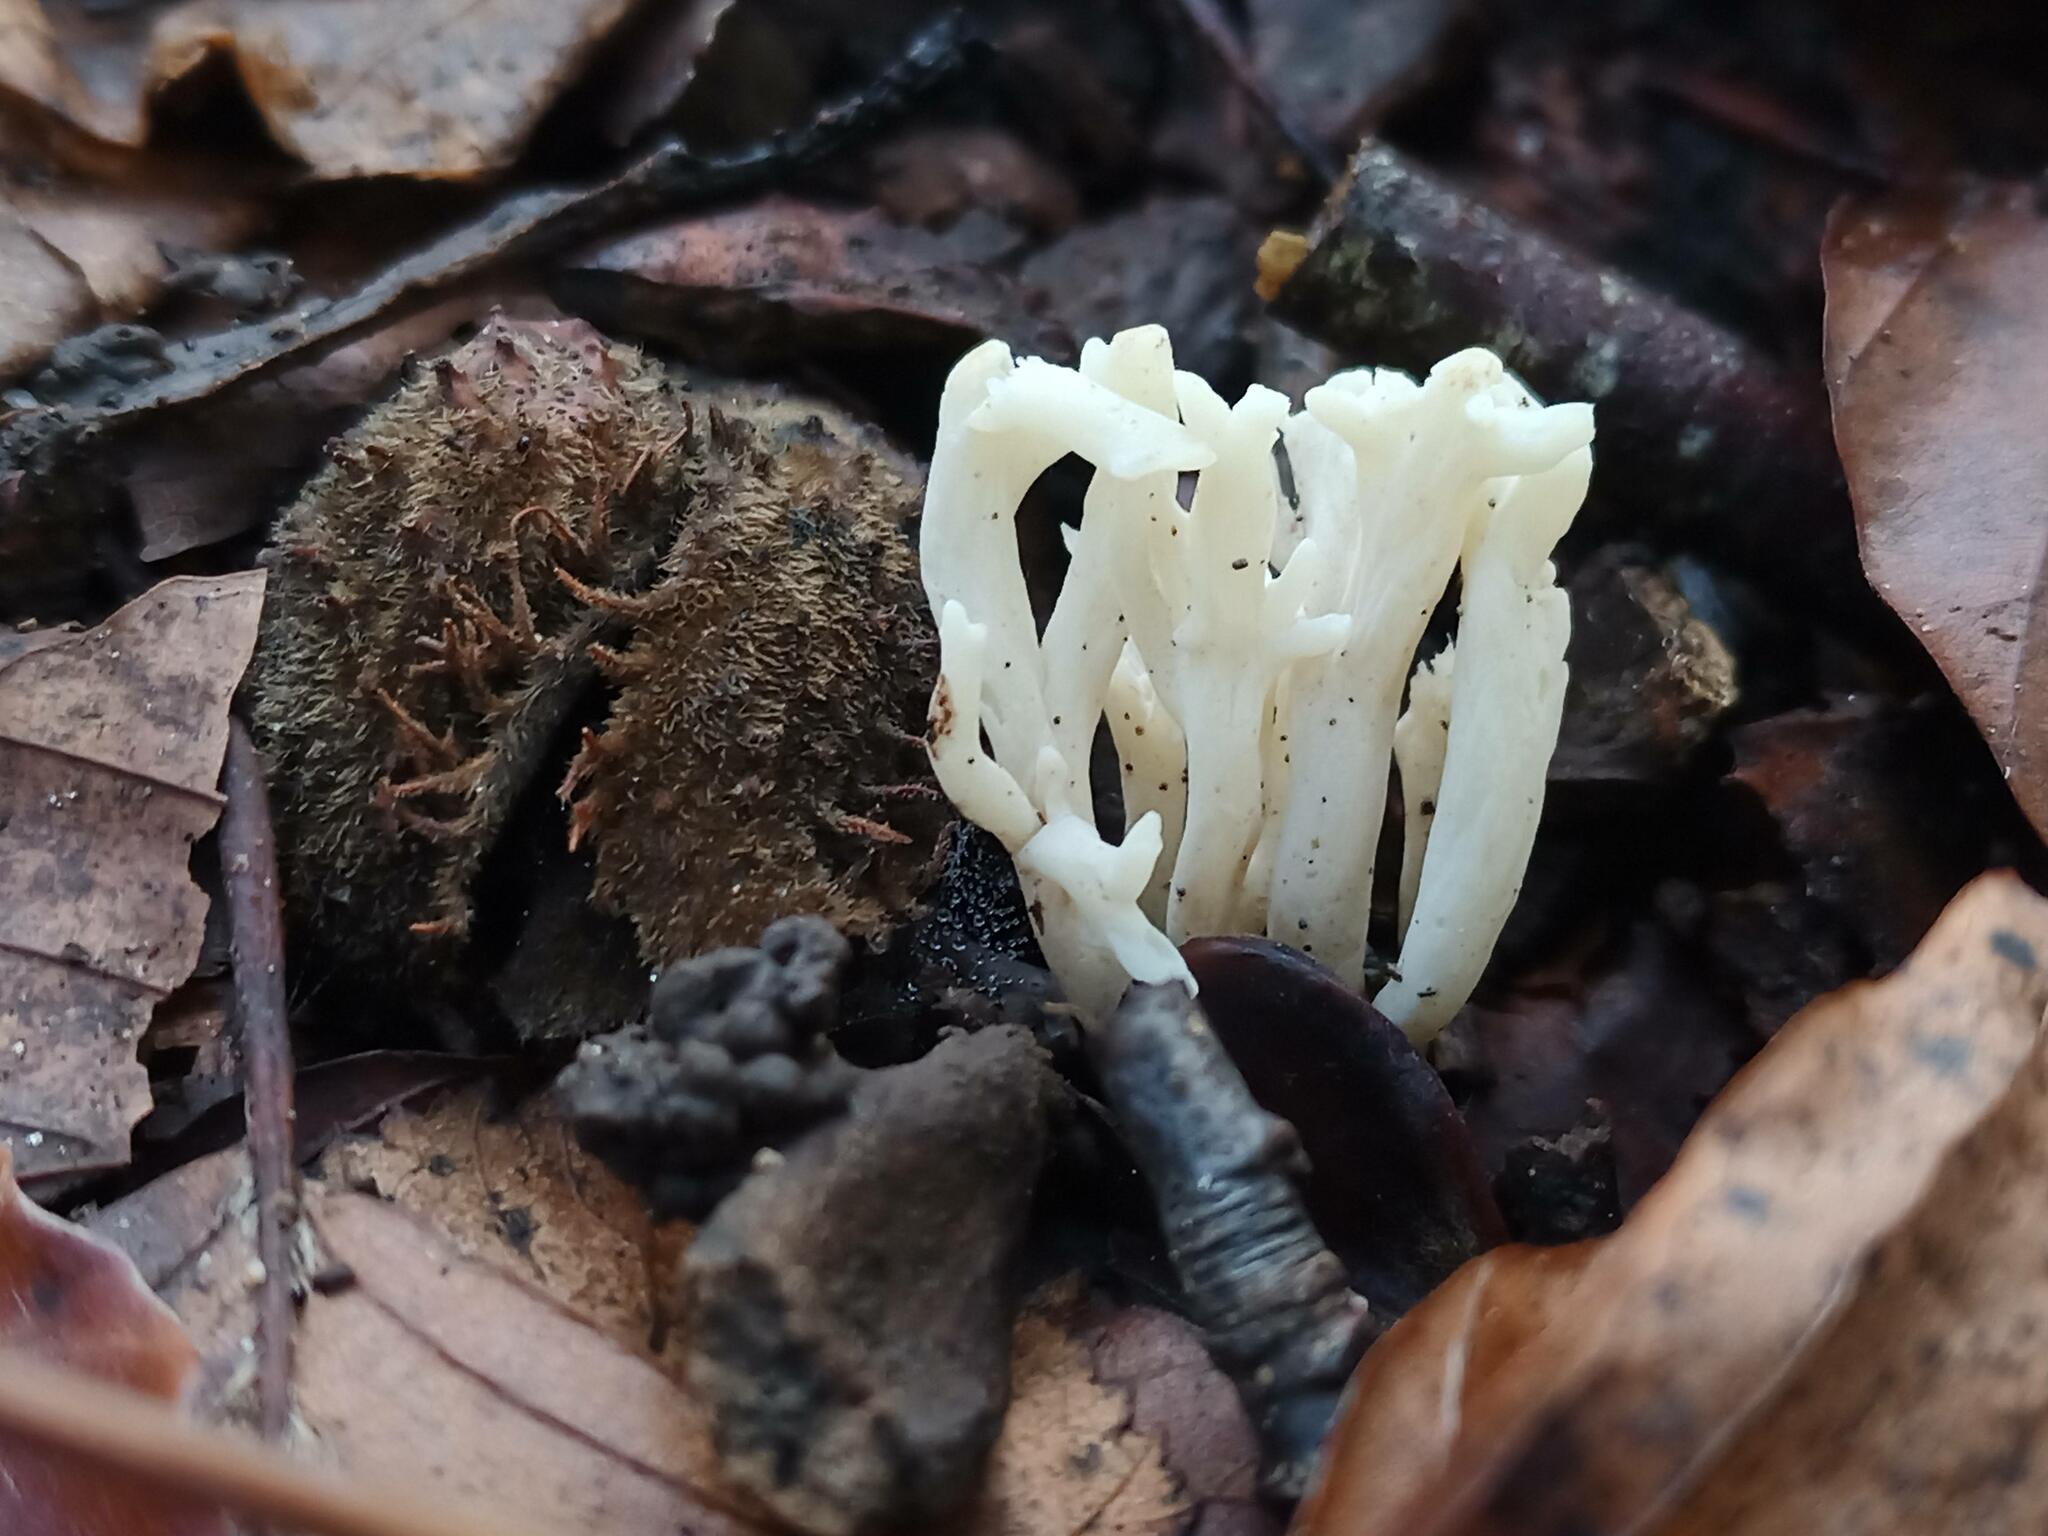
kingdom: Fungi
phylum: Basidiomycota
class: Agaricomycetes
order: Cantharellales
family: Hydnaceae
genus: Clavulina
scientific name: Clavulina rugosa
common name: Wrinkled club
